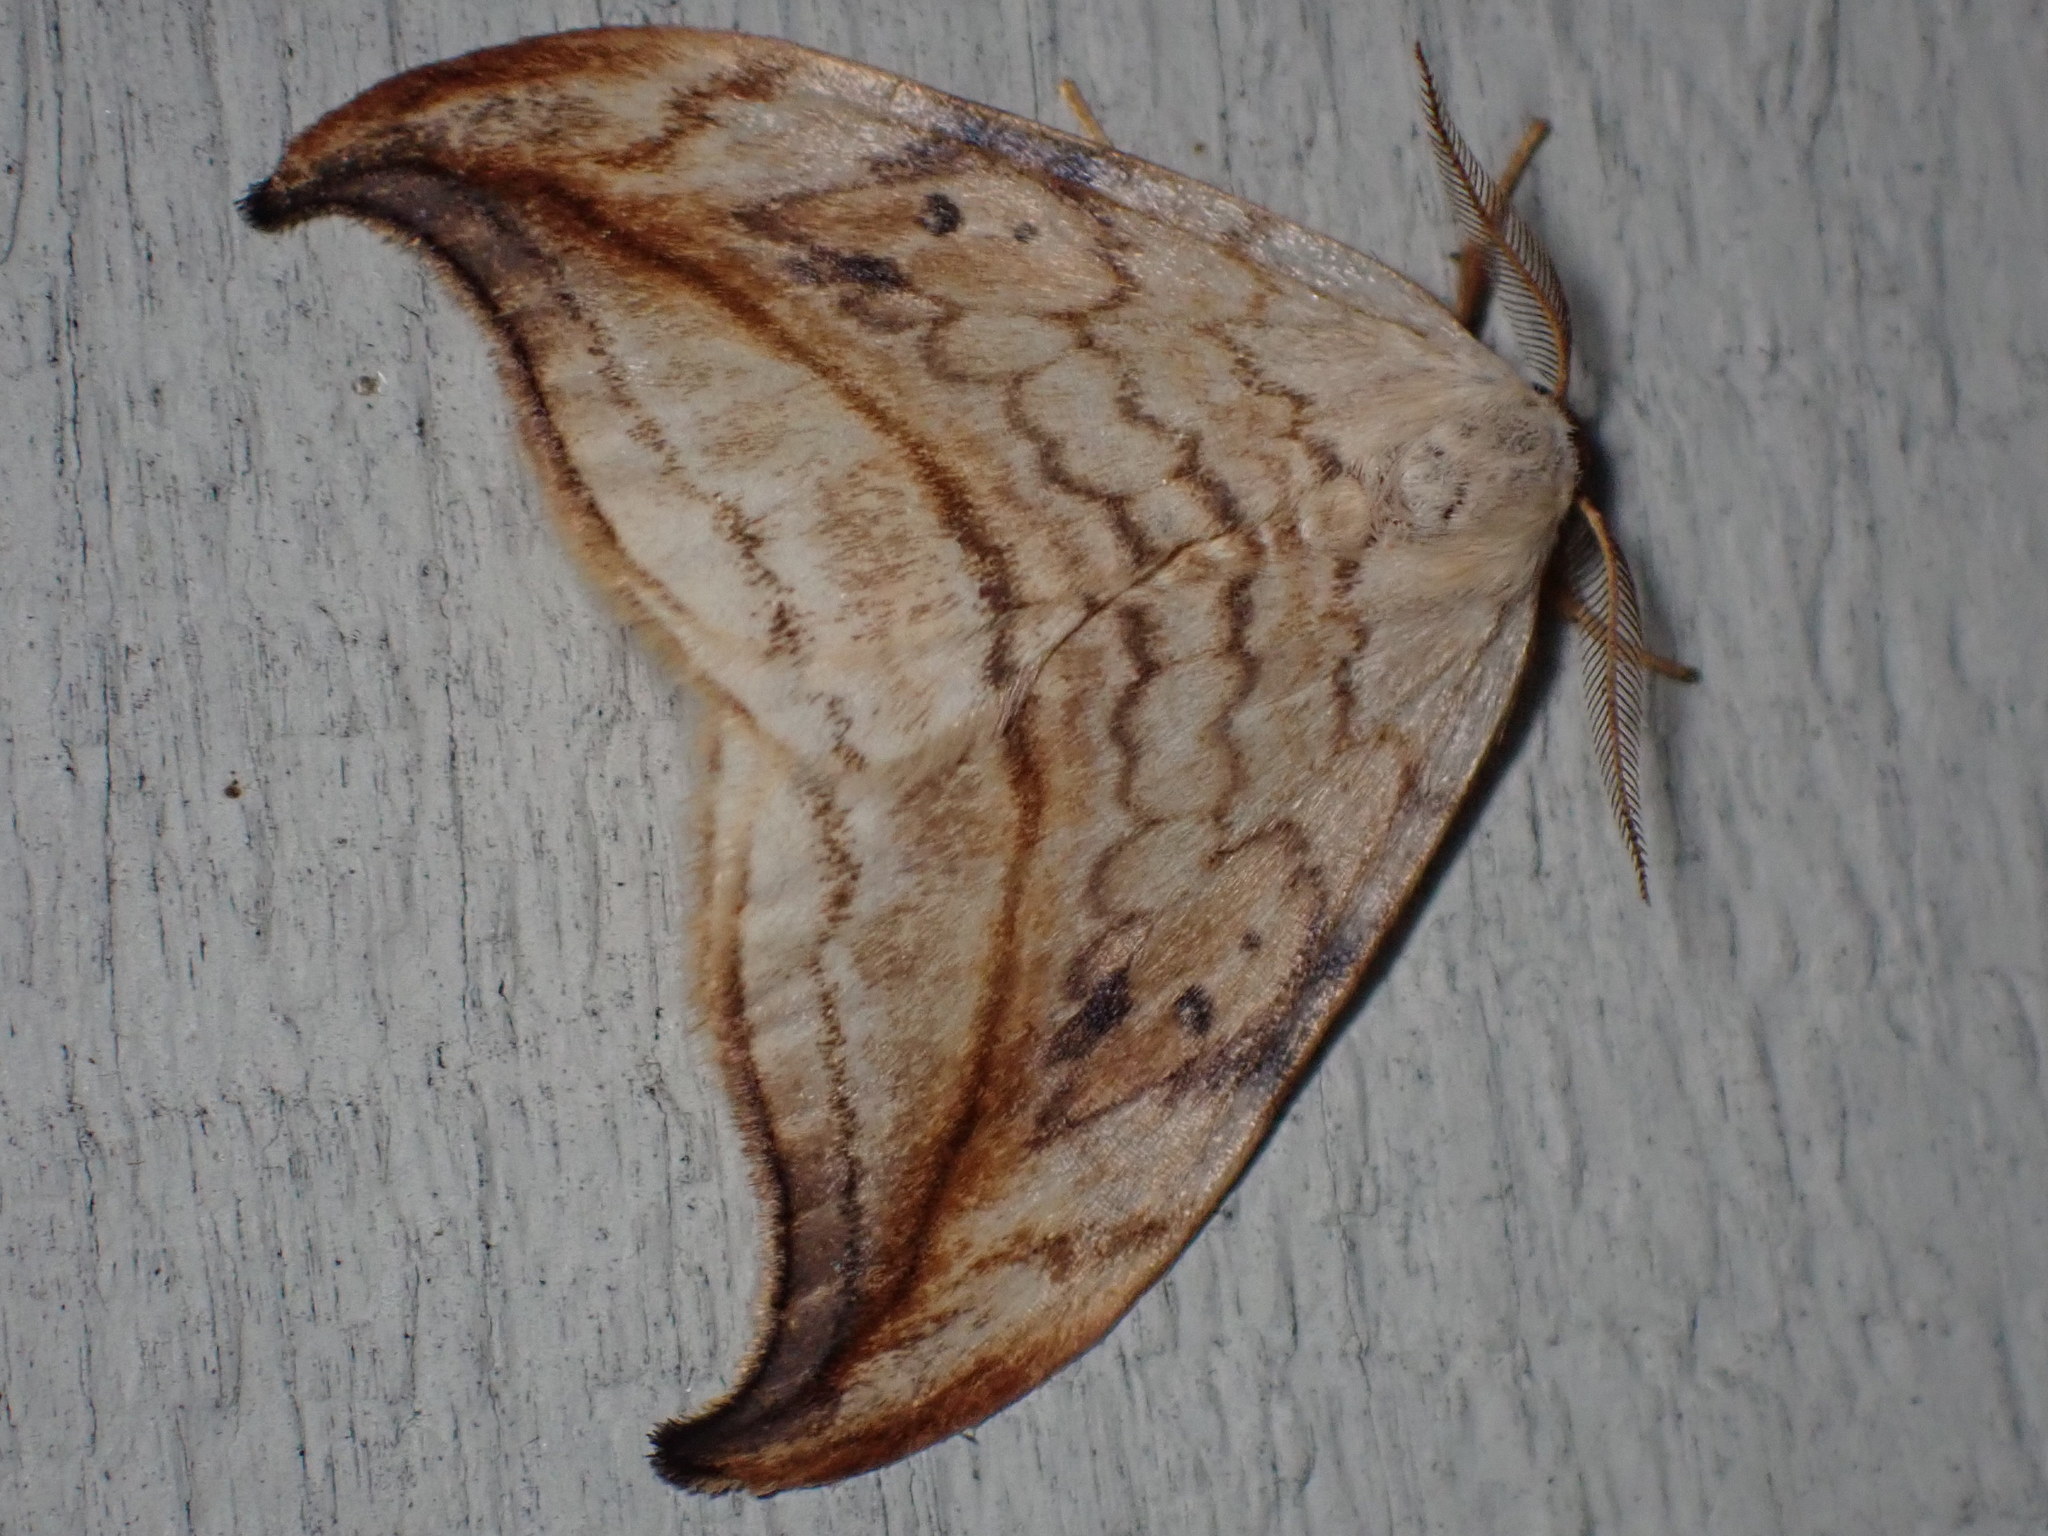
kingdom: Animalia
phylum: Arthropoda
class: Insecta
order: Lepidoptera
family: Drepanidae
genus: Drepana
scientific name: Drepana arcuata
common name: Arched hooktip moth
